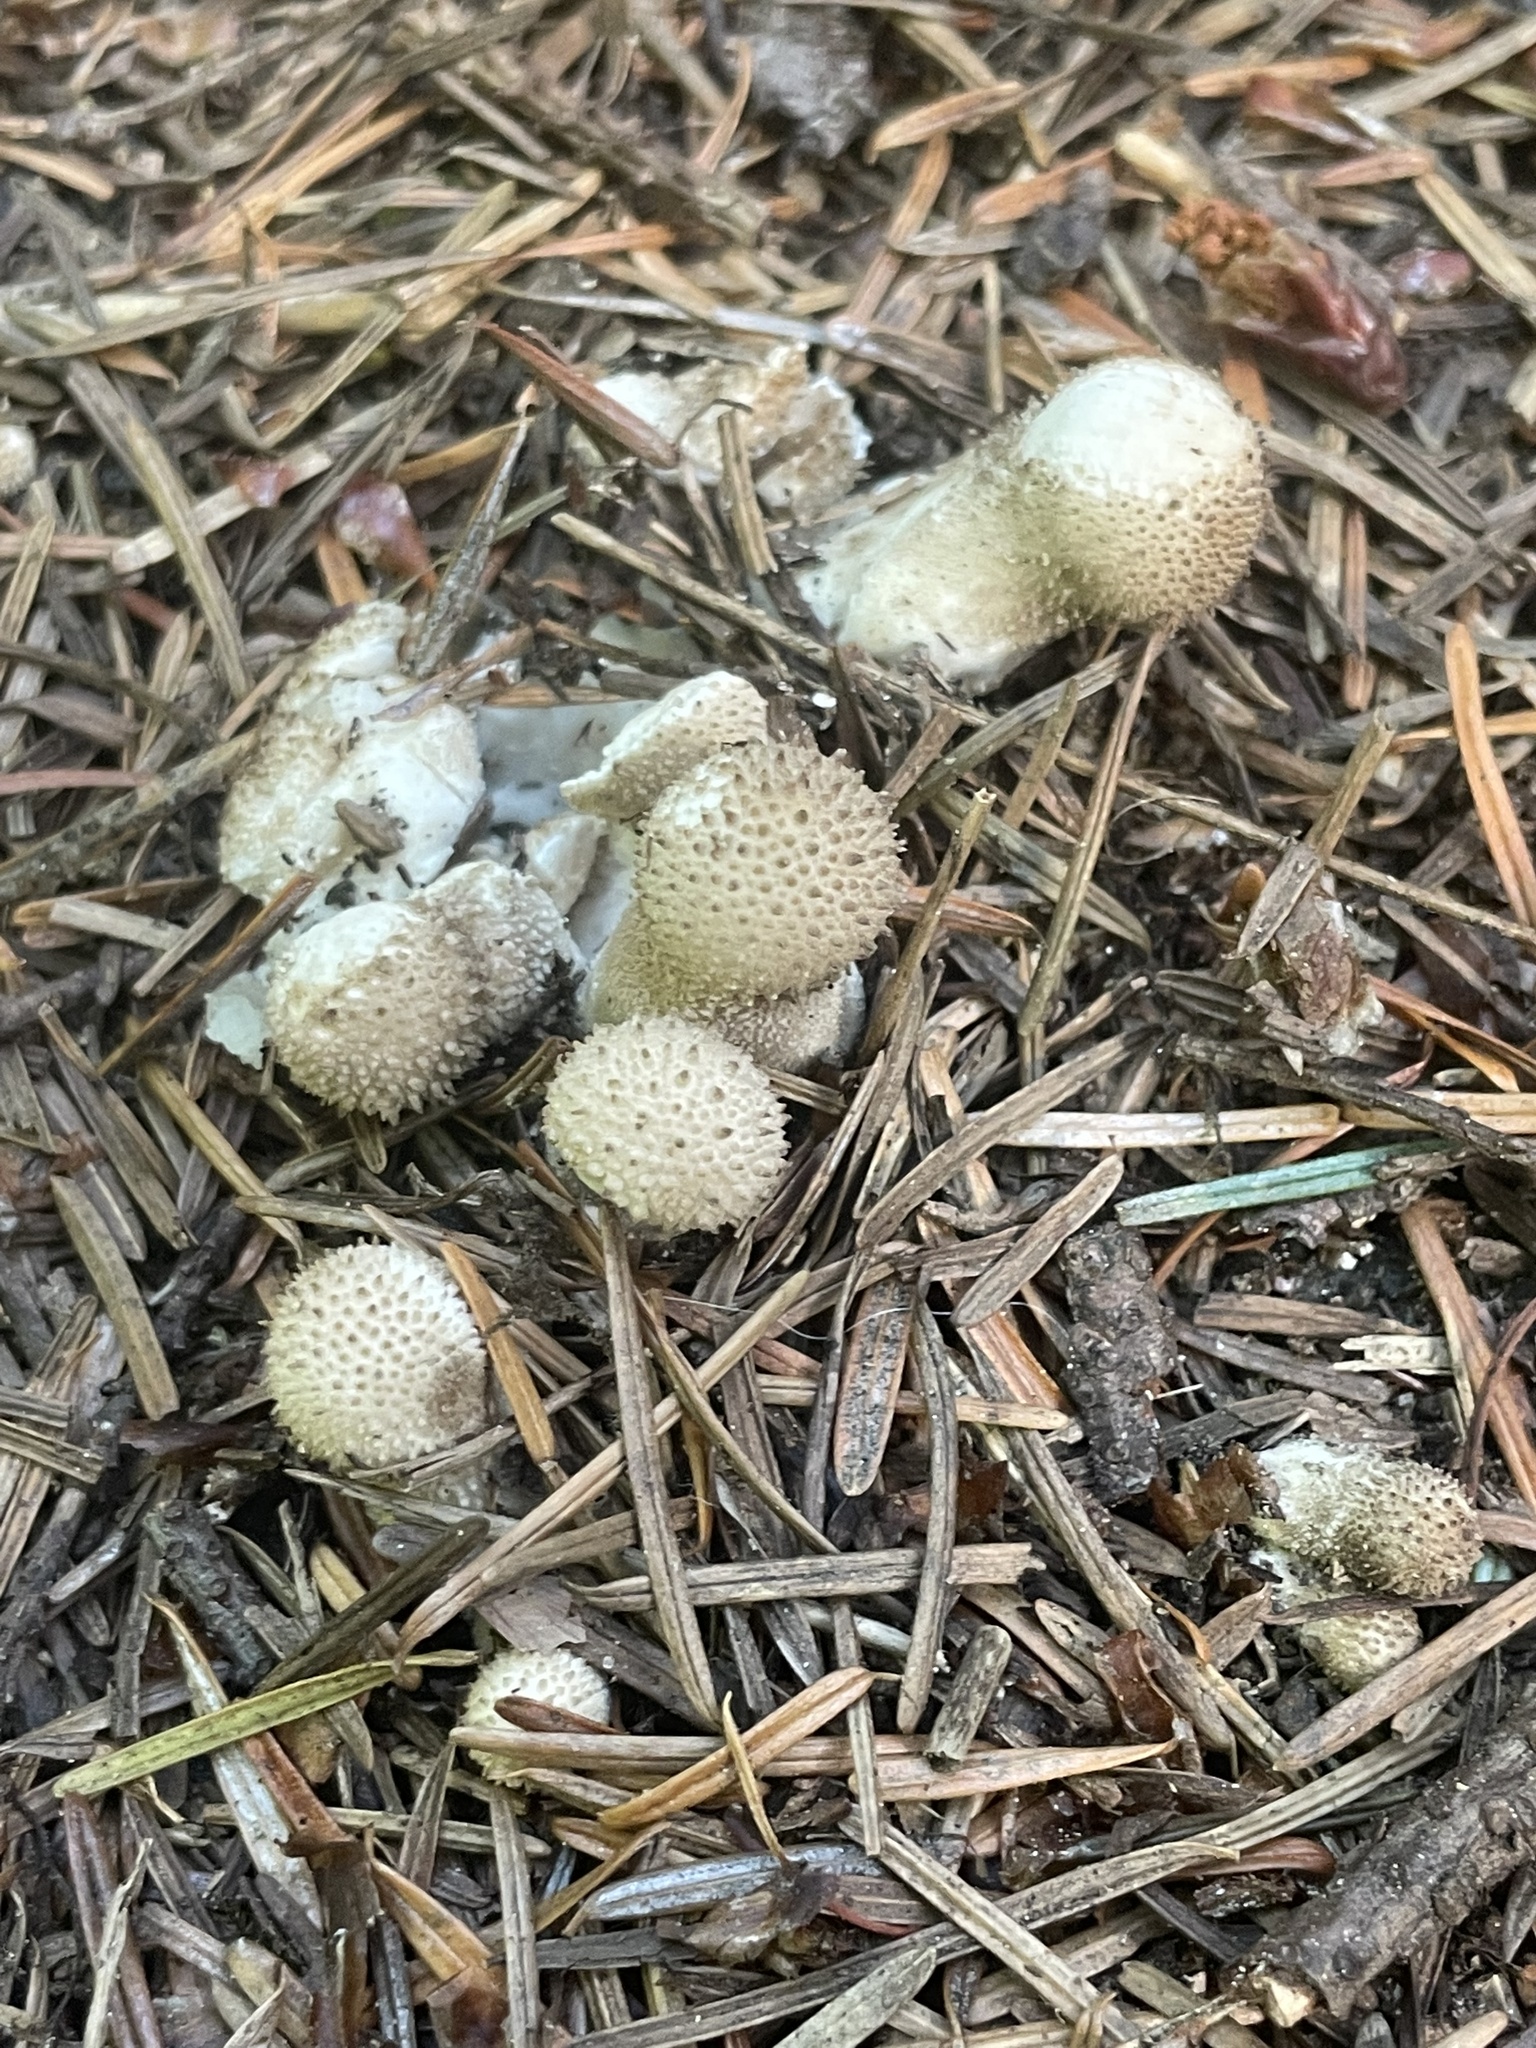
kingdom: Fungi
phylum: Basidiomycota
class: Agaricomycetes
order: Agaricales
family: Lycoperdaceae
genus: Lycoperdon
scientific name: Lycoperdon perlatum
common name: Common puffball
